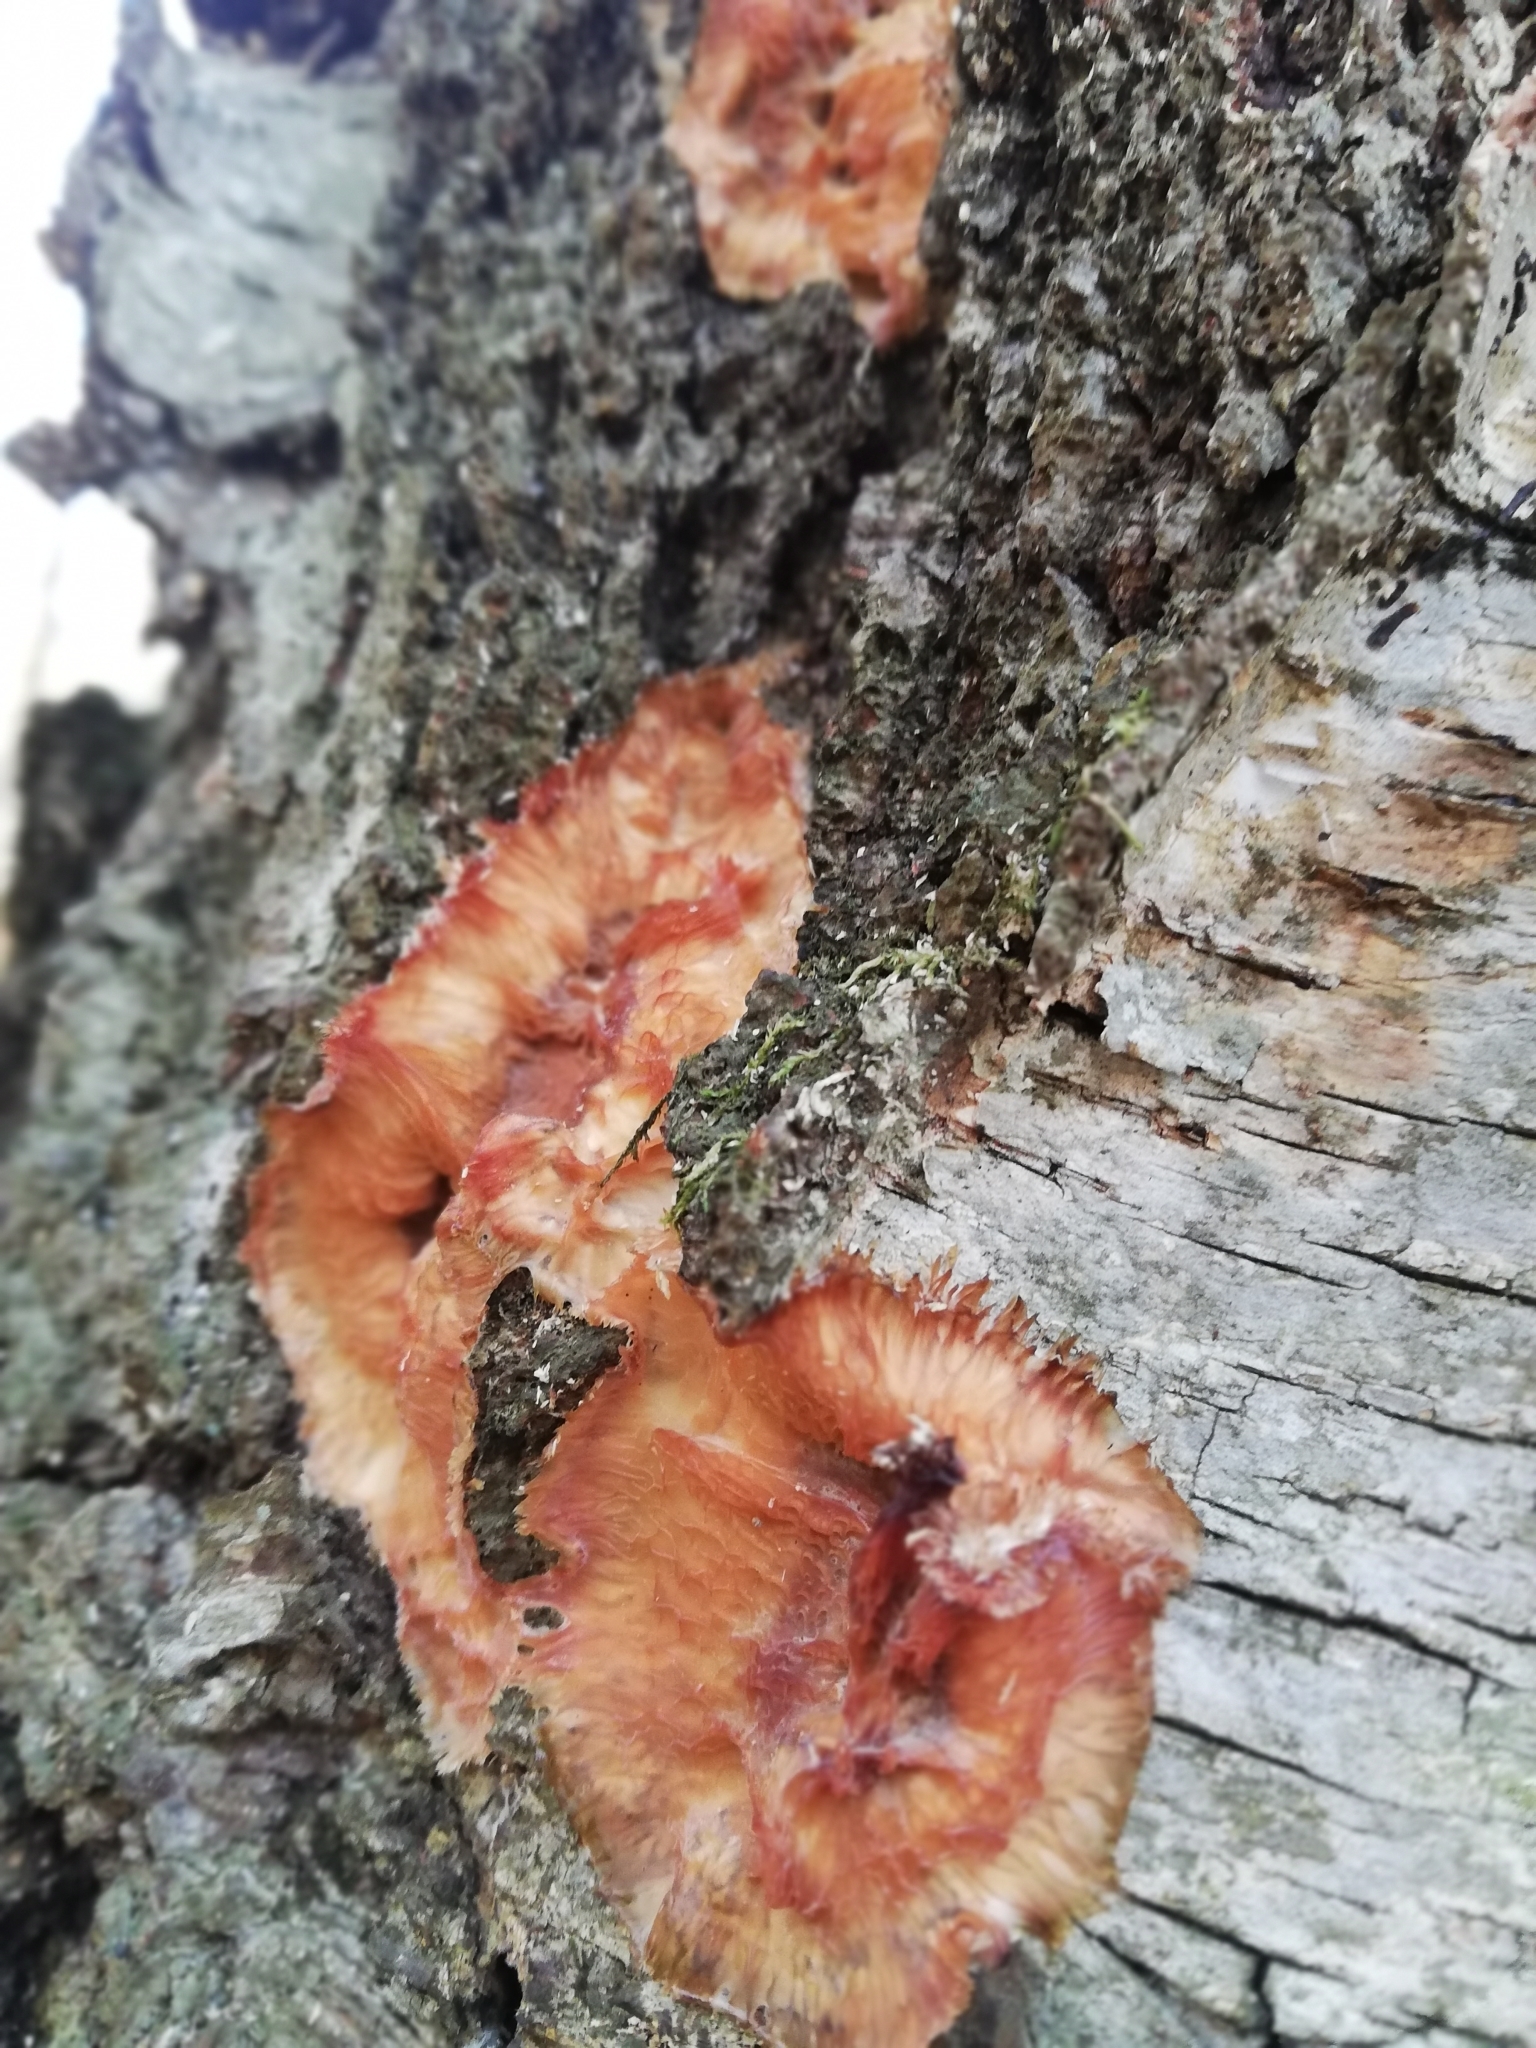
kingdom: Fungi
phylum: Basidiomycota
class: Agaricomycetes
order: Polyporales
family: Meruliaceae
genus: Phlebia
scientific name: Phlebia tremellosa
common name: Jelly rot
